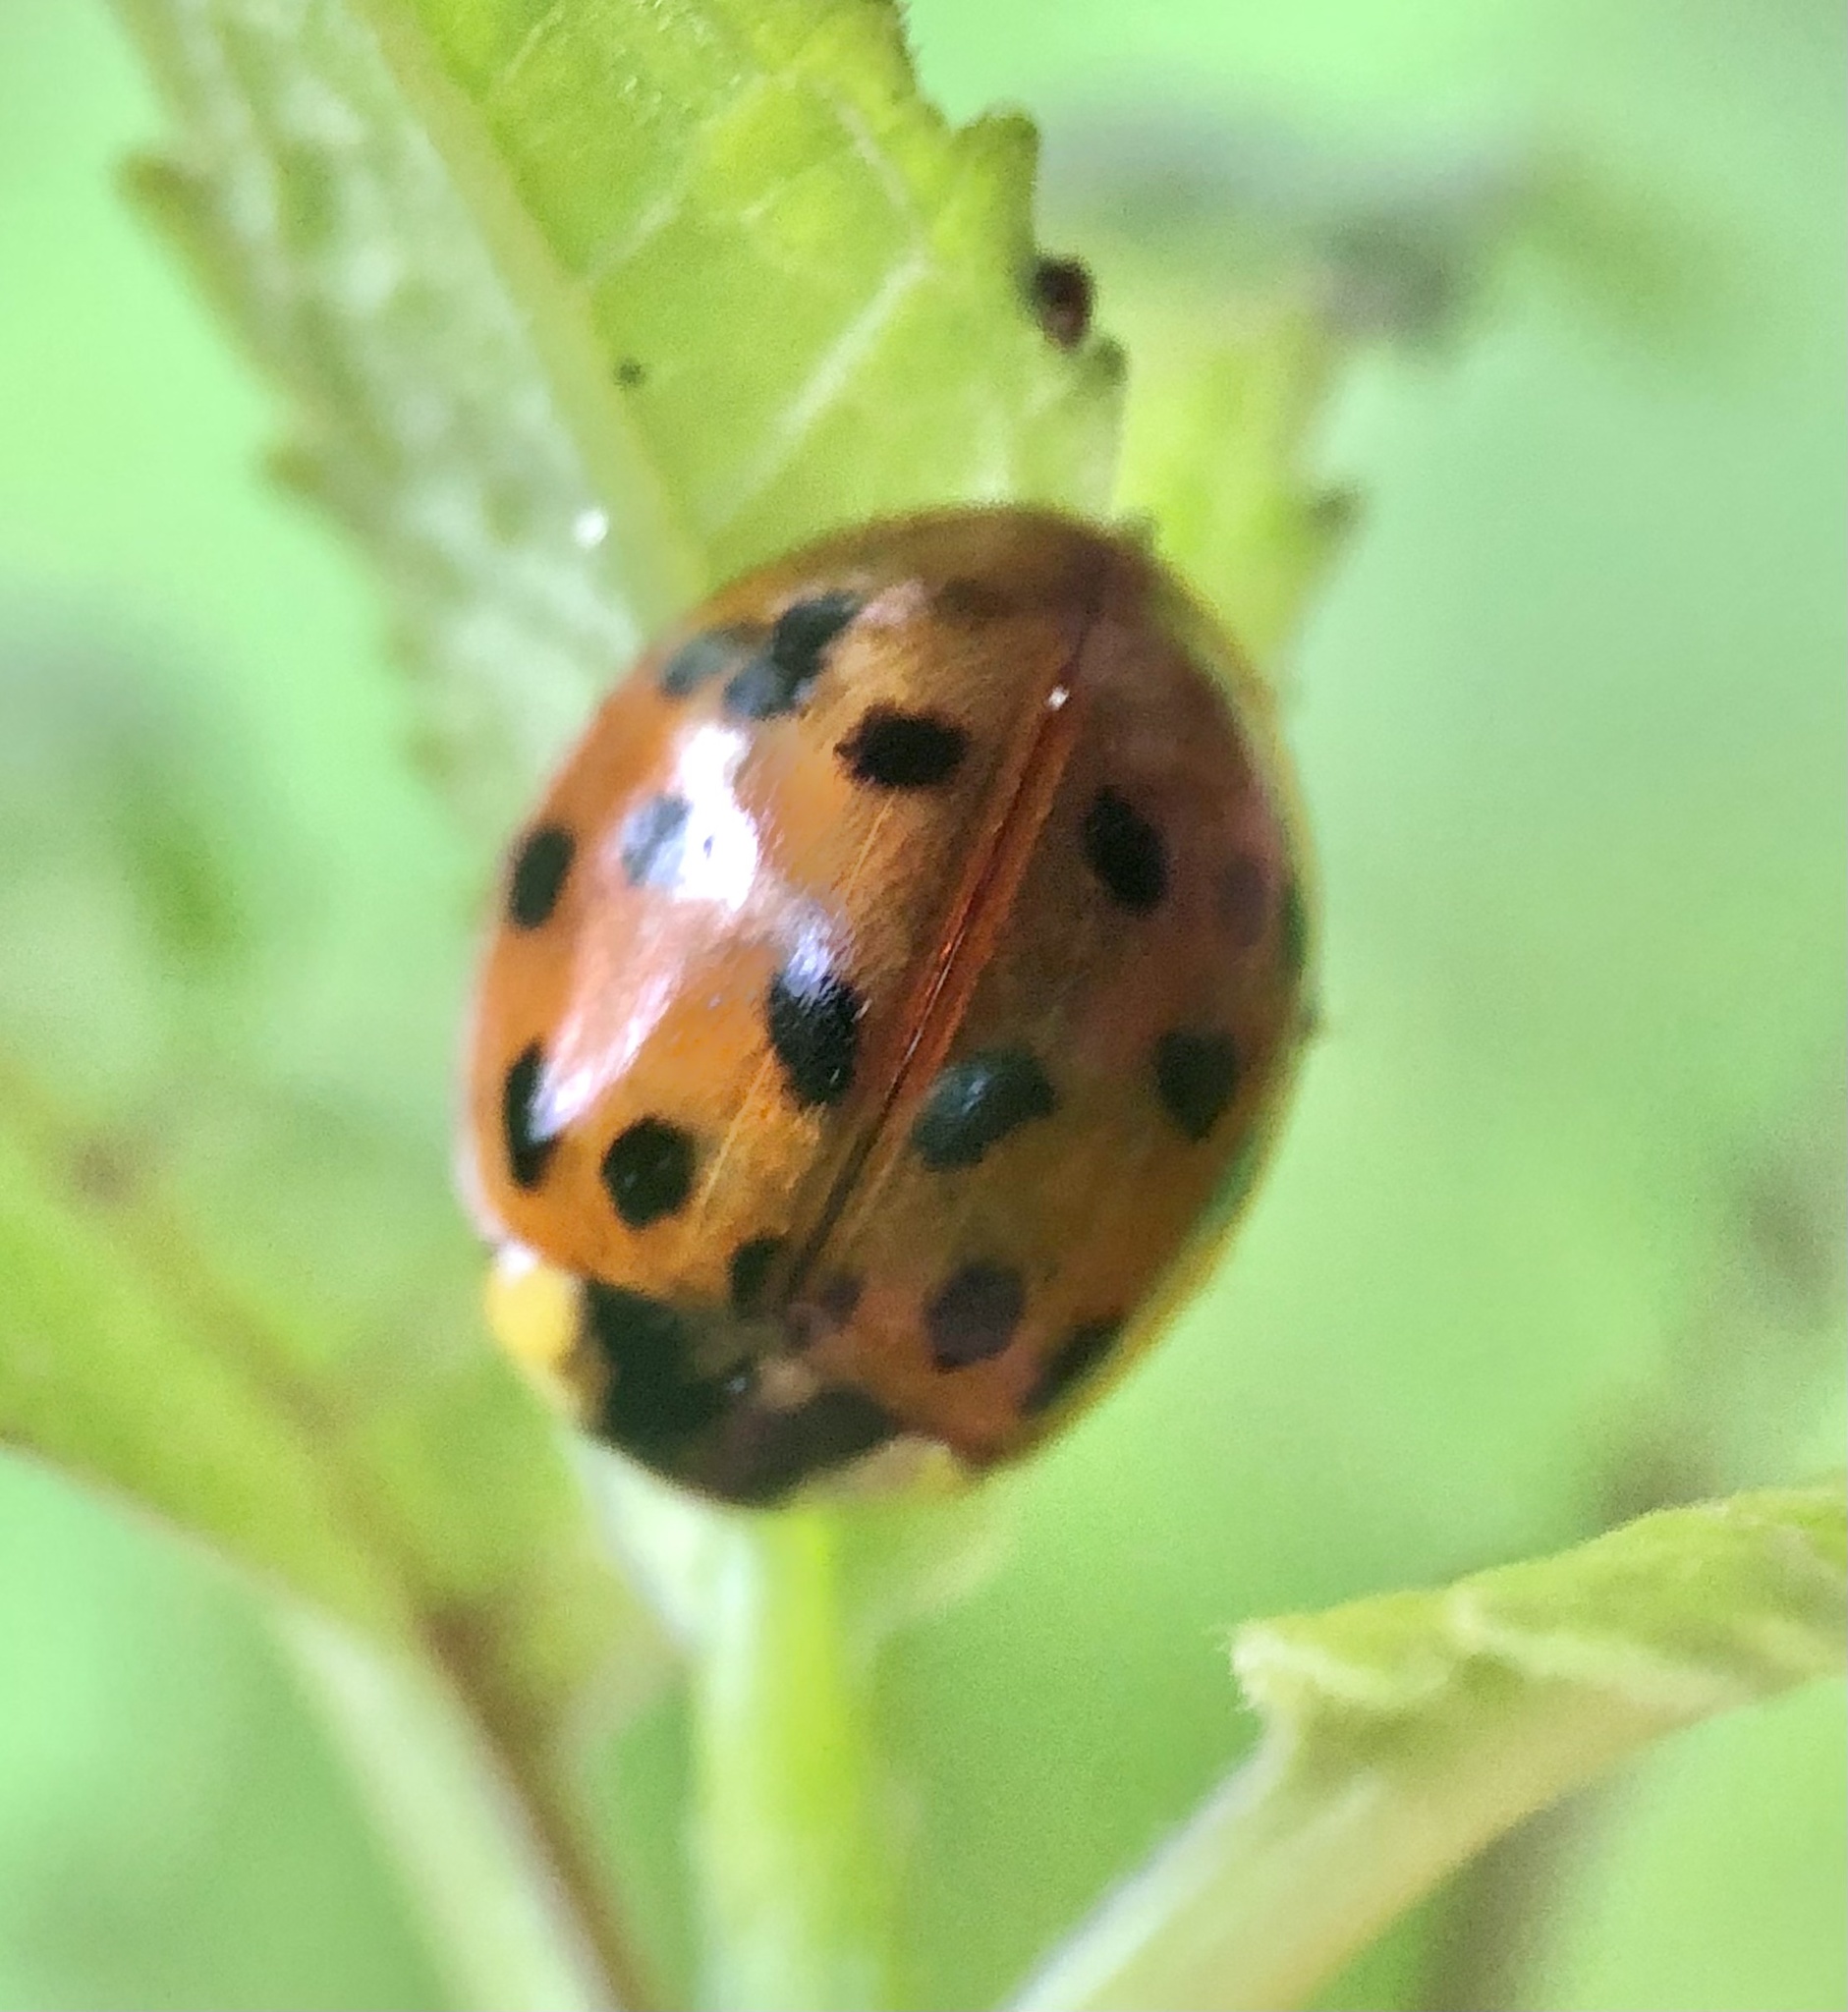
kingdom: Animalia
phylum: Arthropoda
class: Insecta
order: Coleoptera
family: Coccinellidae
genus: Harmonia
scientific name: Harmonia axyridis
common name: Harlequin ladybird
